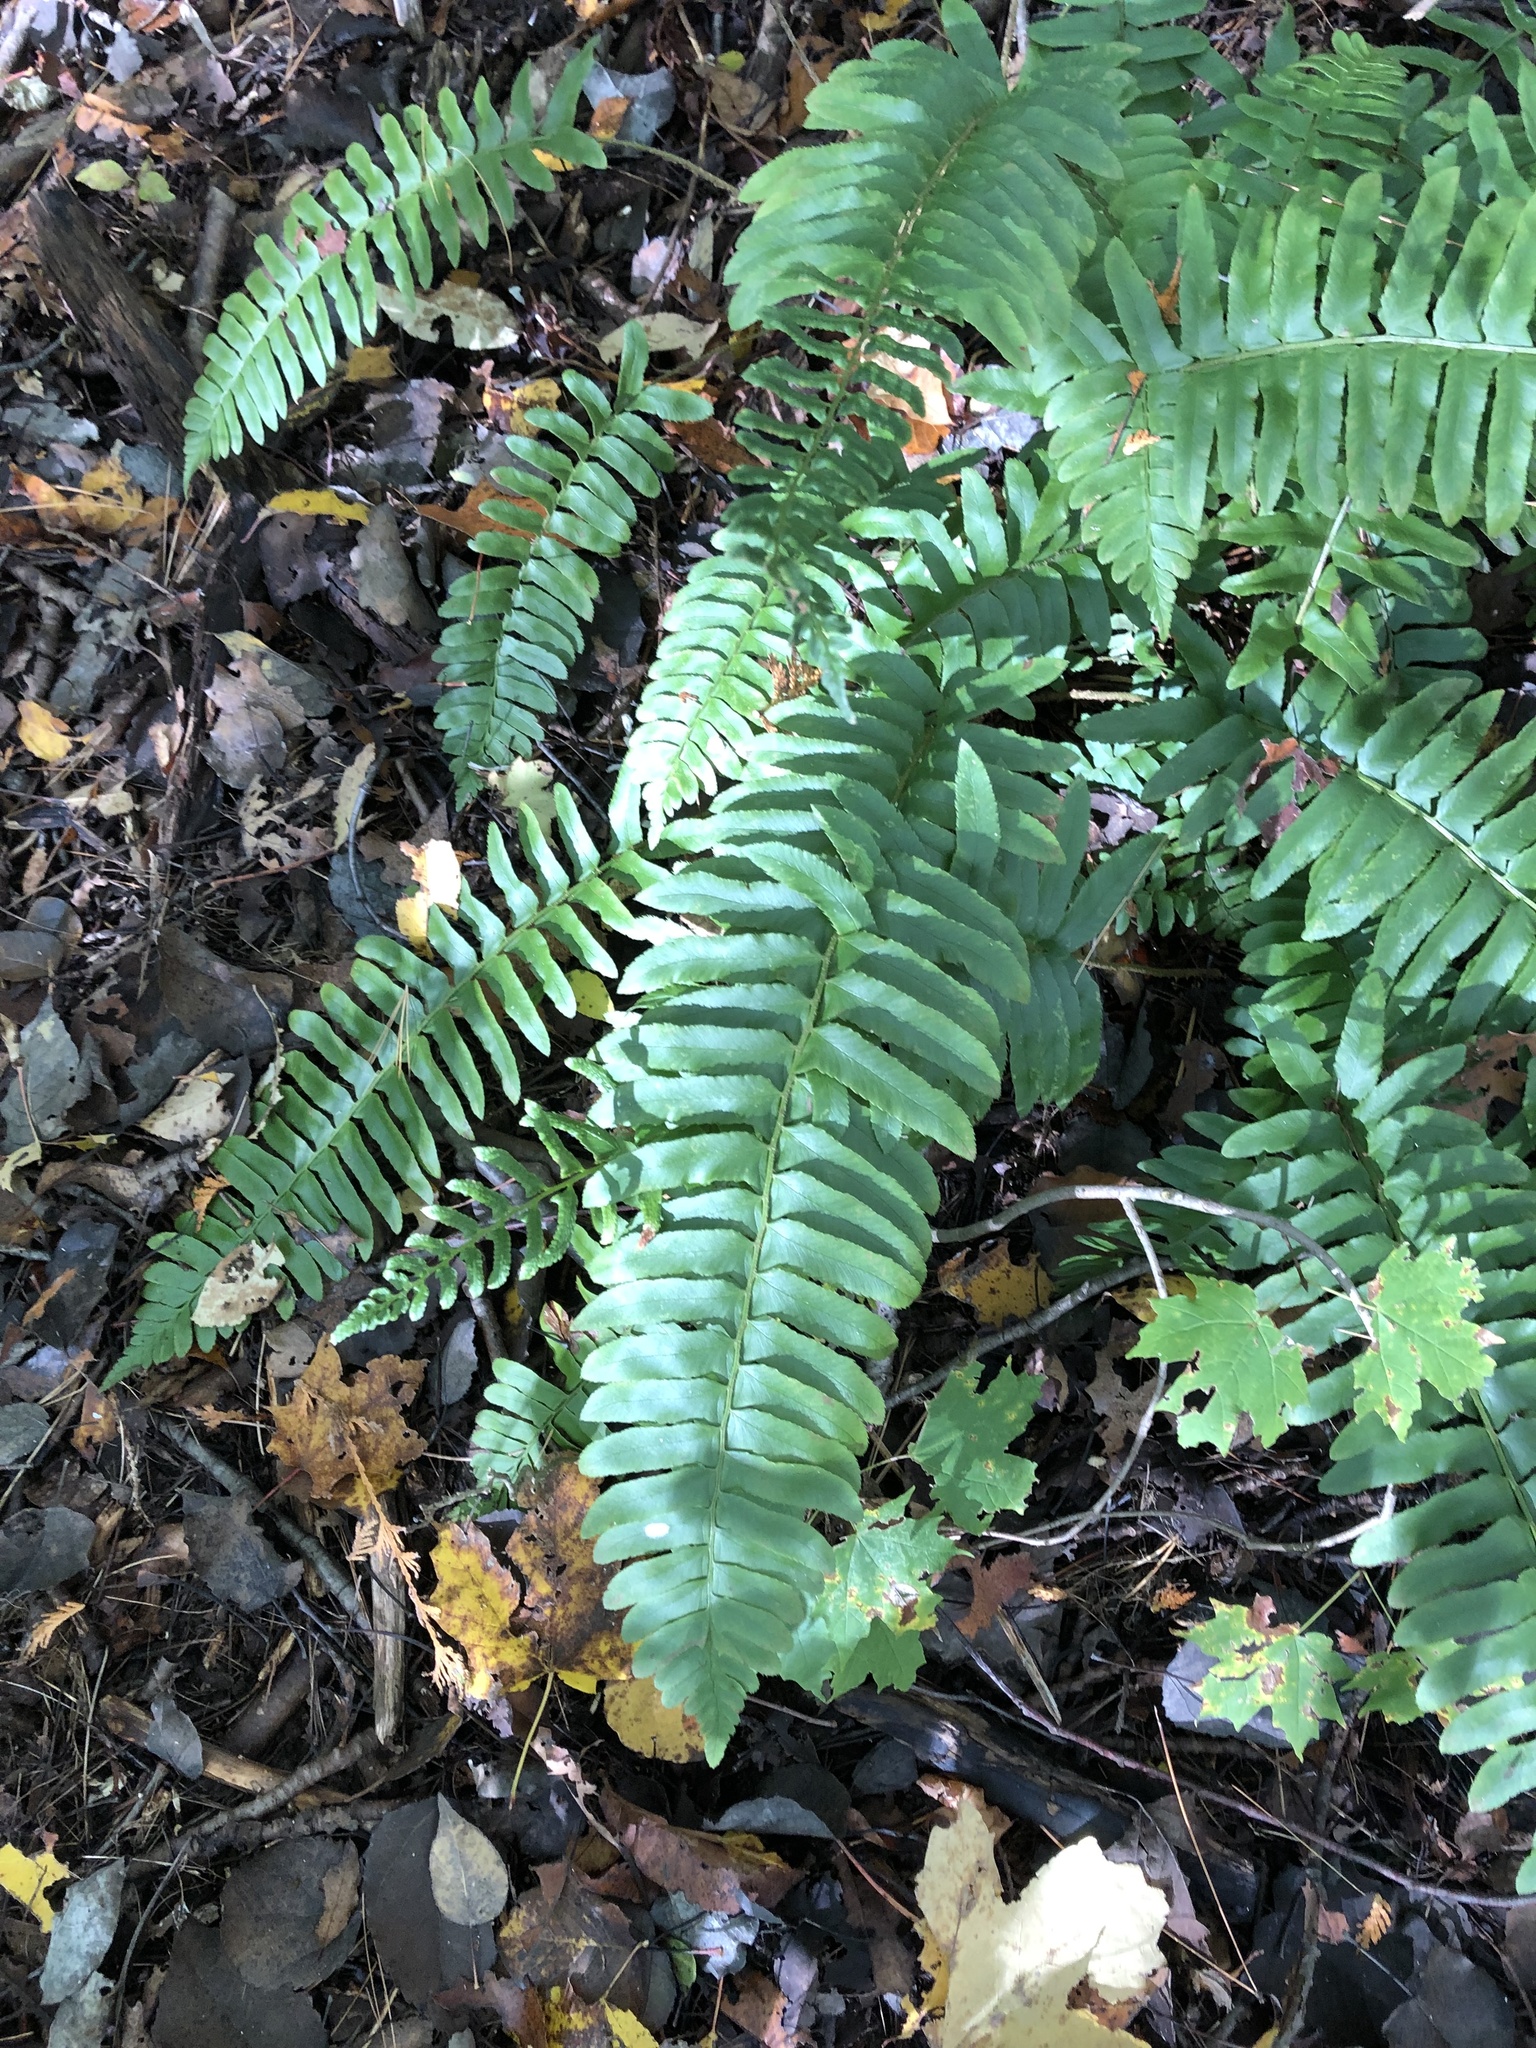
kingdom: Plantae
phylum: Tracheophyta
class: Polypodiopsida
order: Polypodiales
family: Dryopteridaceae
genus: Polystichum
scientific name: Polystichum acrostichoides
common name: Christmas fern
